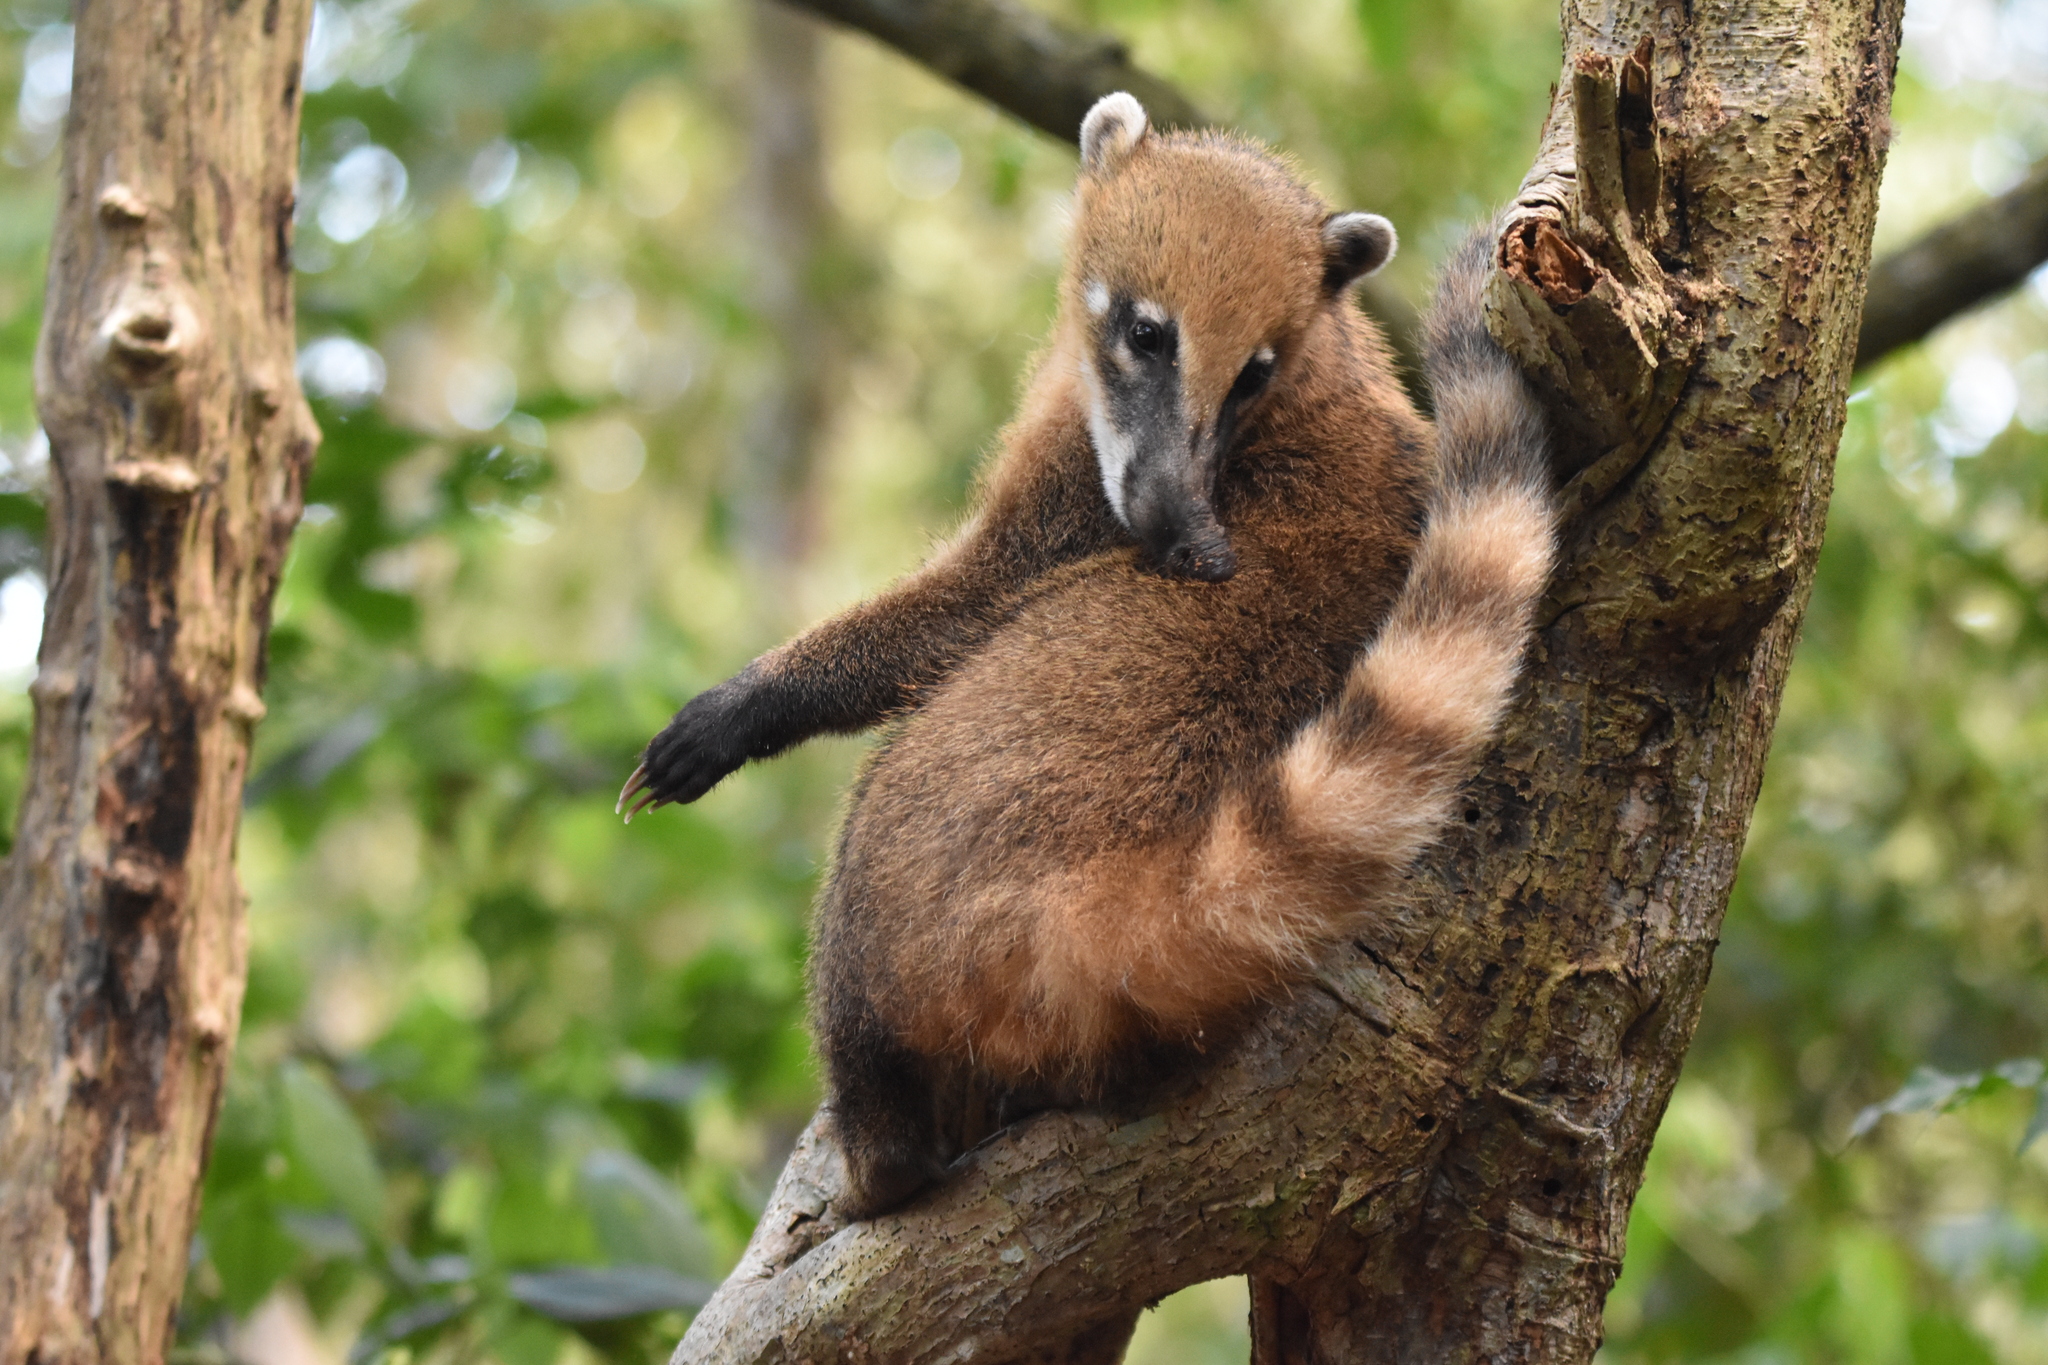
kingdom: Animalia
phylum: Chordata
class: Mammalia
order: Carnivora
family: Procyonidae
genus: Nasua
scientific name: Nasua nasua
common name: South american coati
